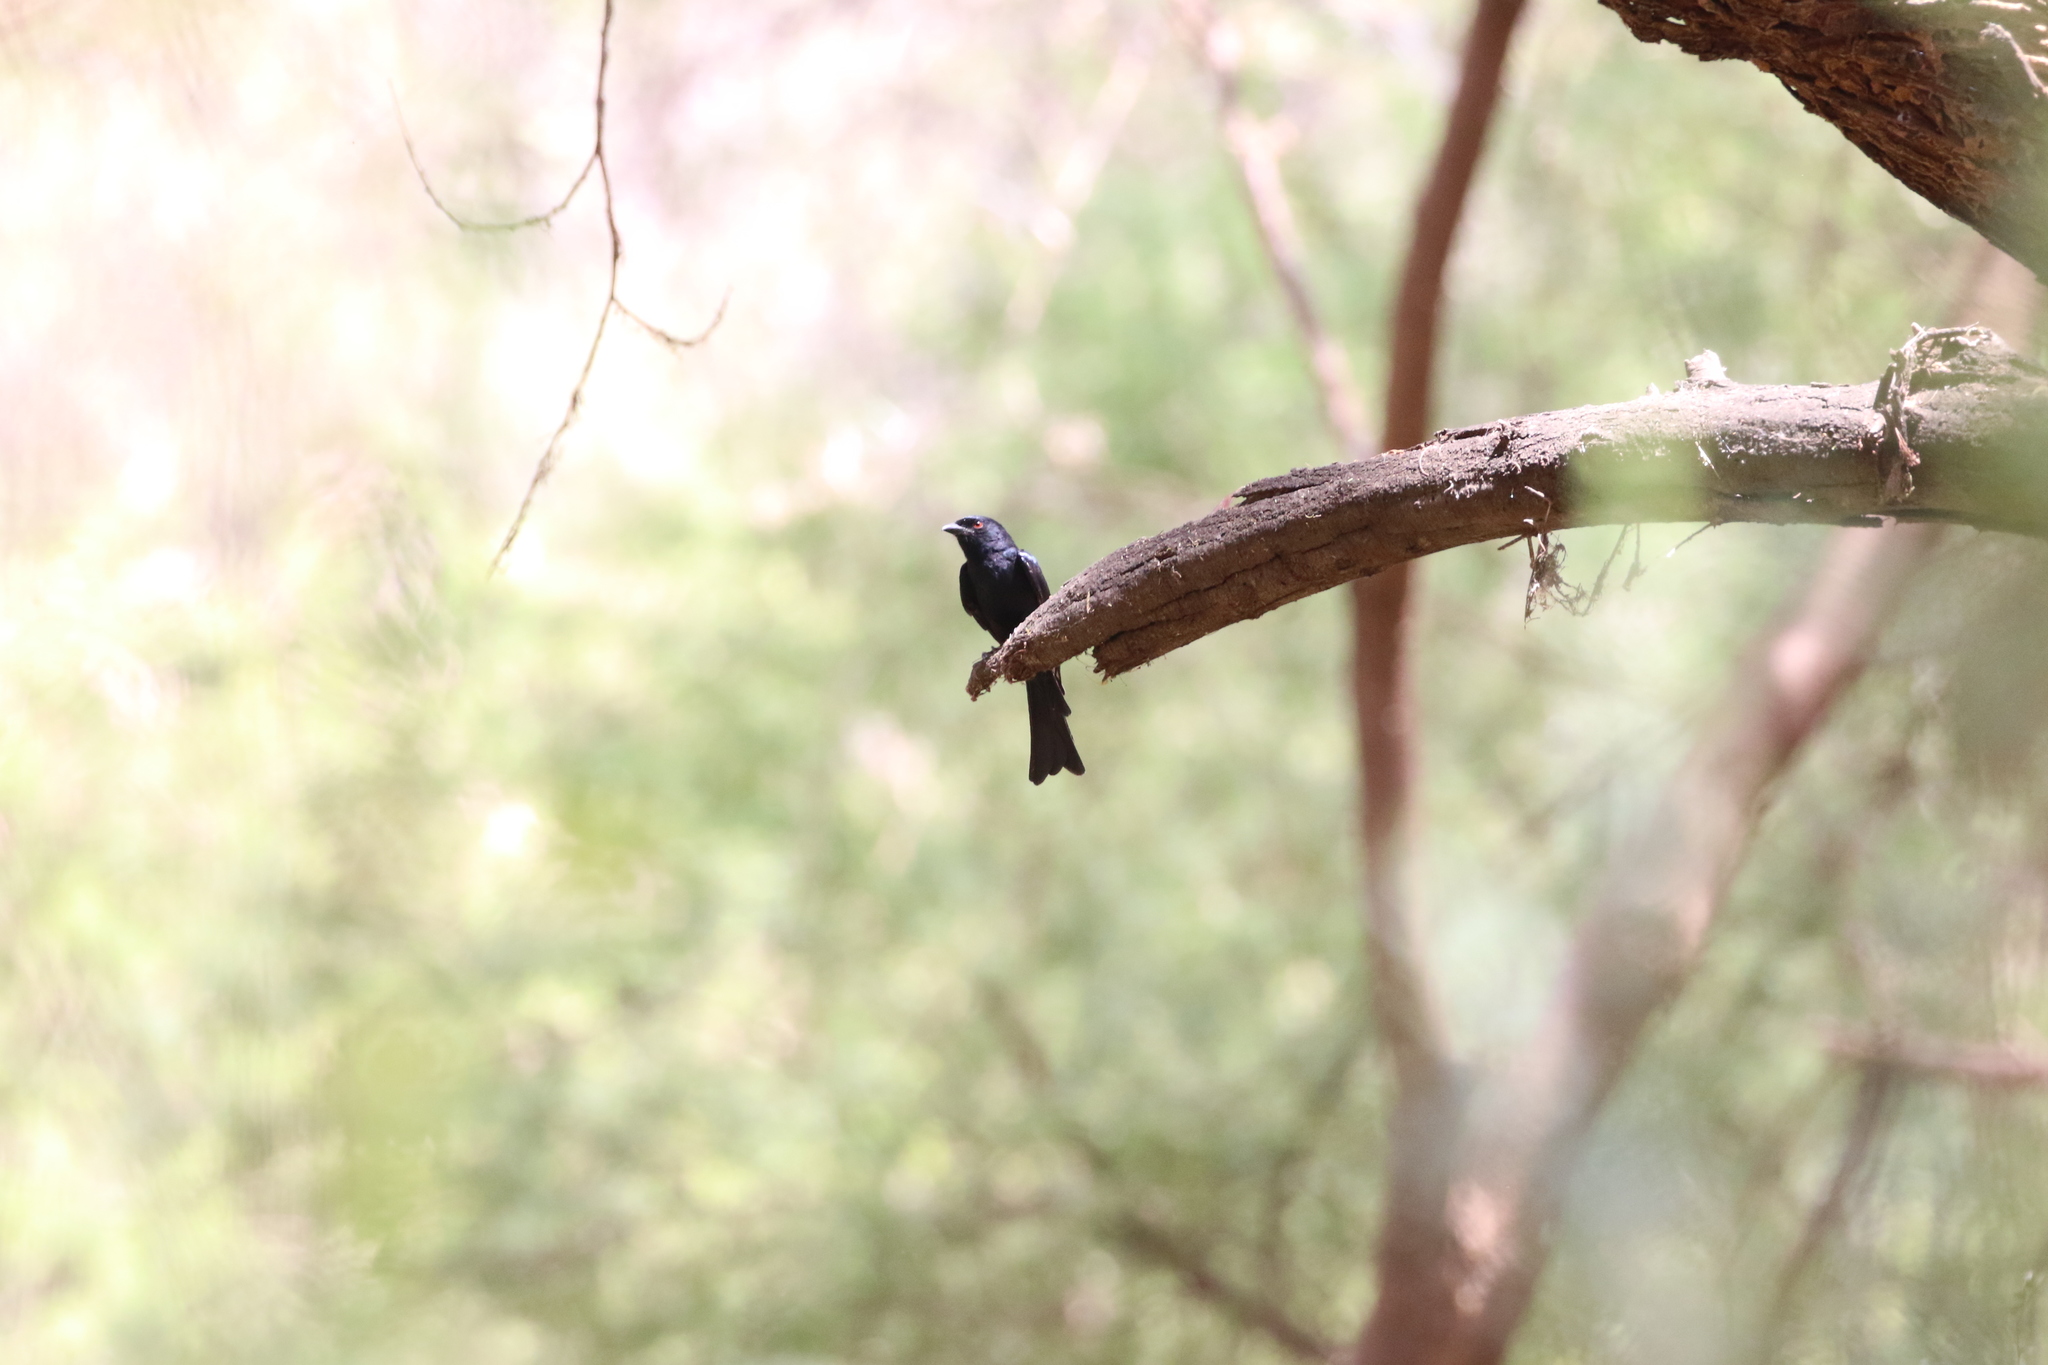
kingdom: Animalia
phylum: Chordata
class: Aves
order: Passeriformes
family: Dicruridae
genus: Dicrurus
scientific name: Dicrurus adsimilis
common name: Fork-tailed drongo
